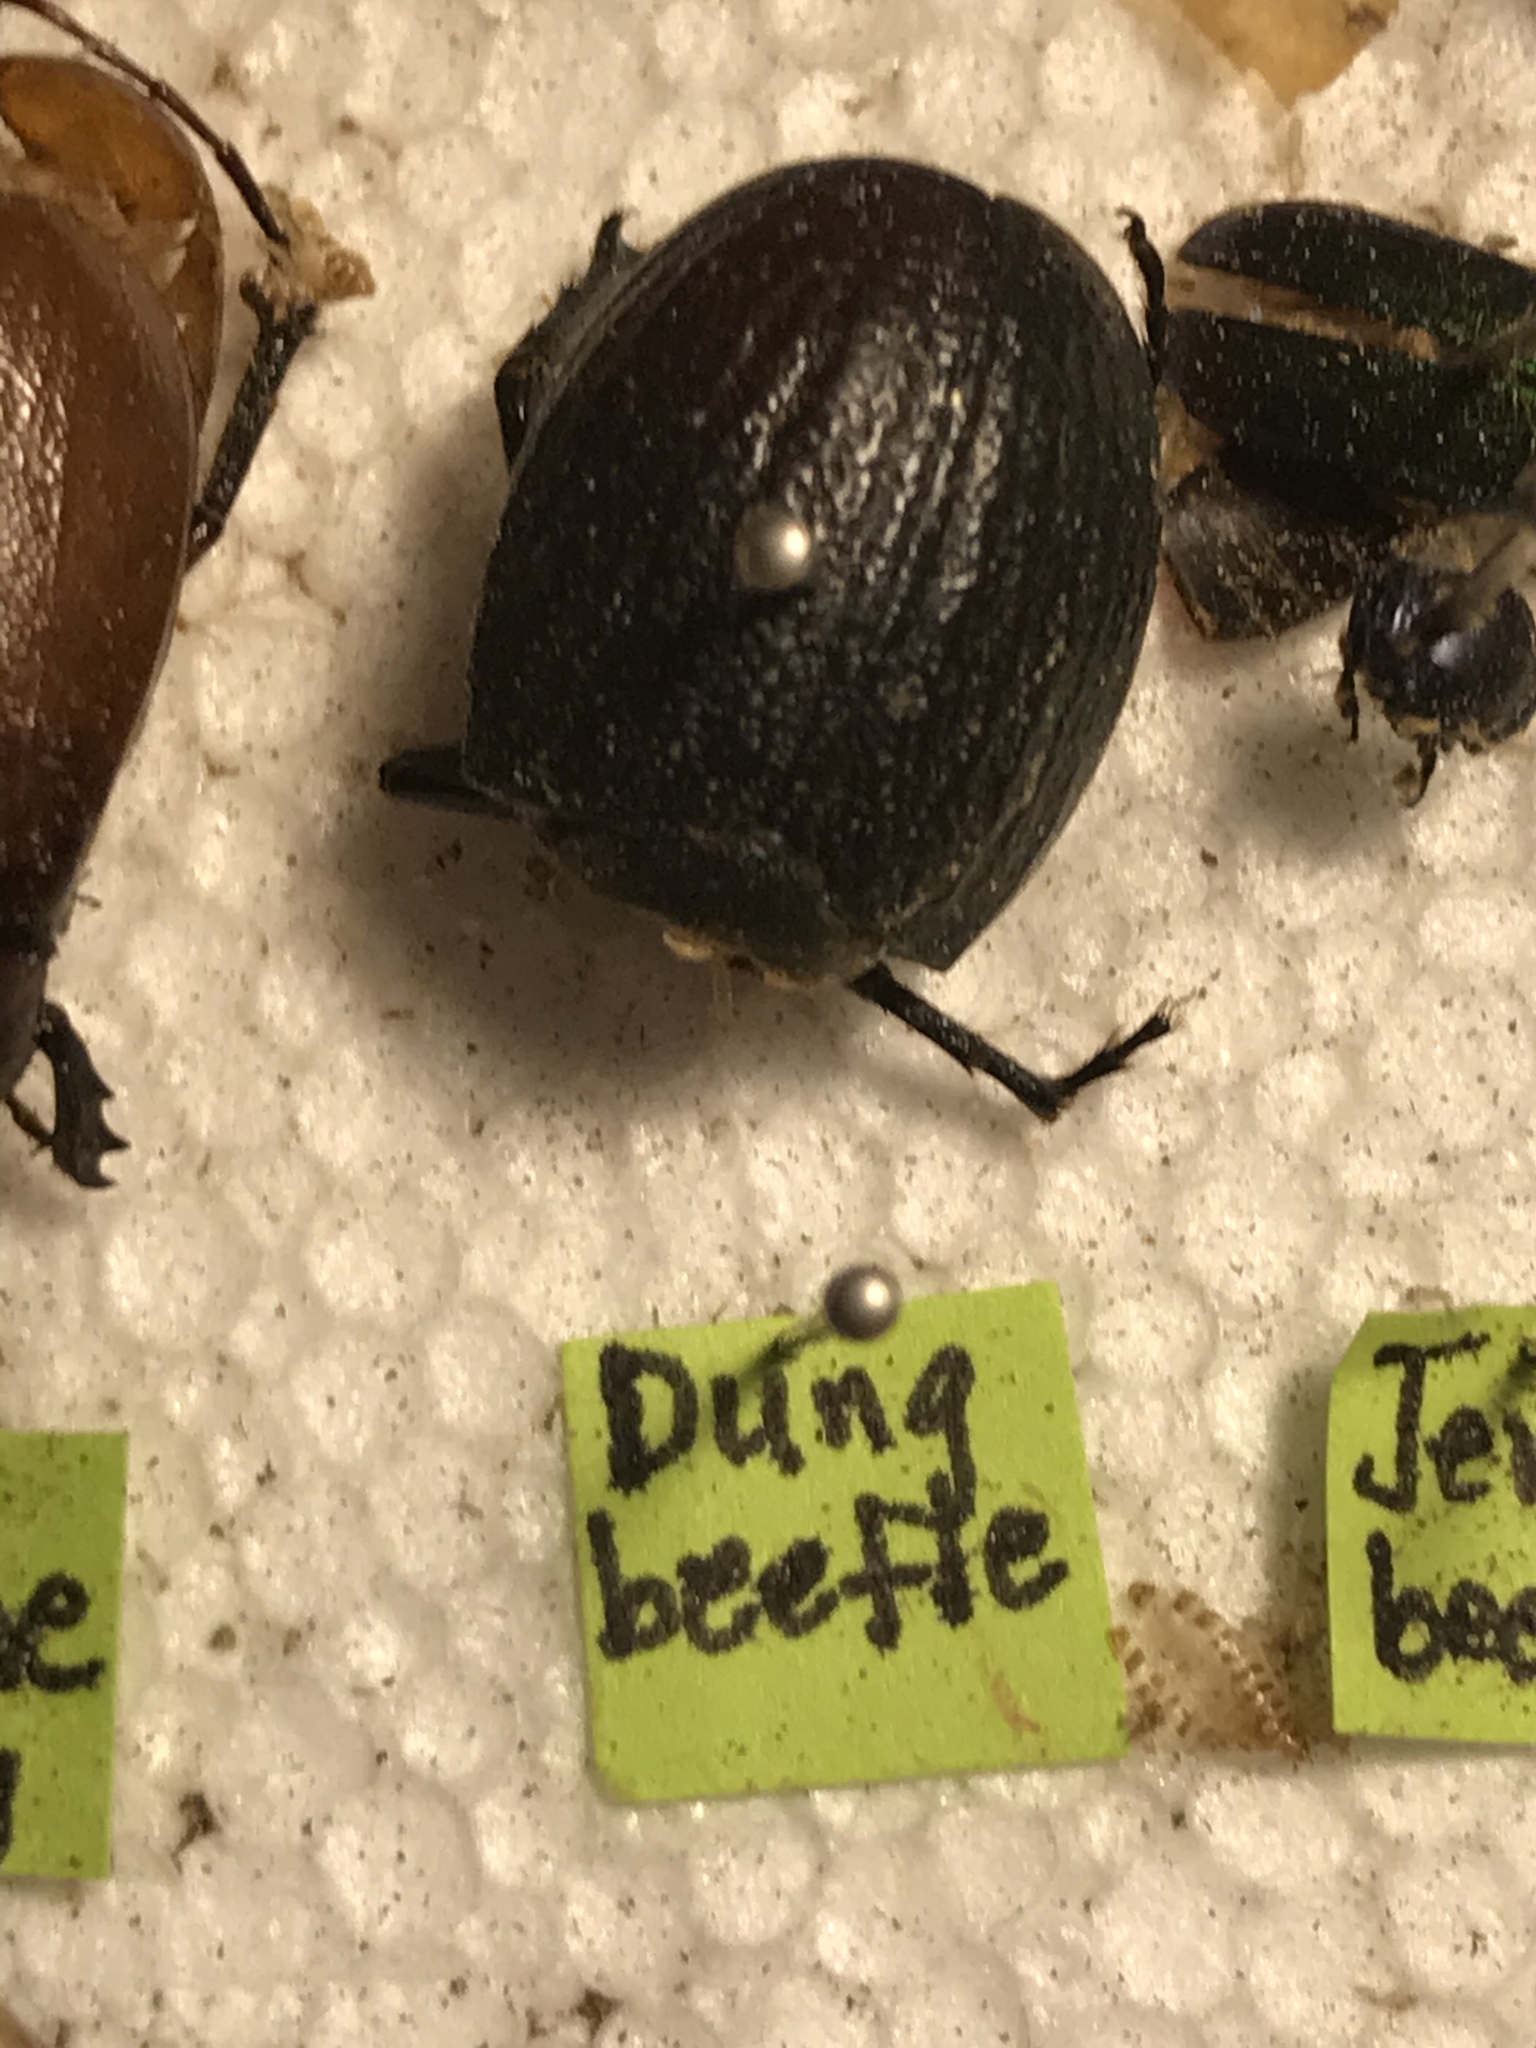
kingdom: Animalia
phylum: Arthropoda
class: Insecta
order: Coleoptera
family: Scarabaeidae
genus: Phyllophaga
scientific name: Phyllophaga cribrosa
